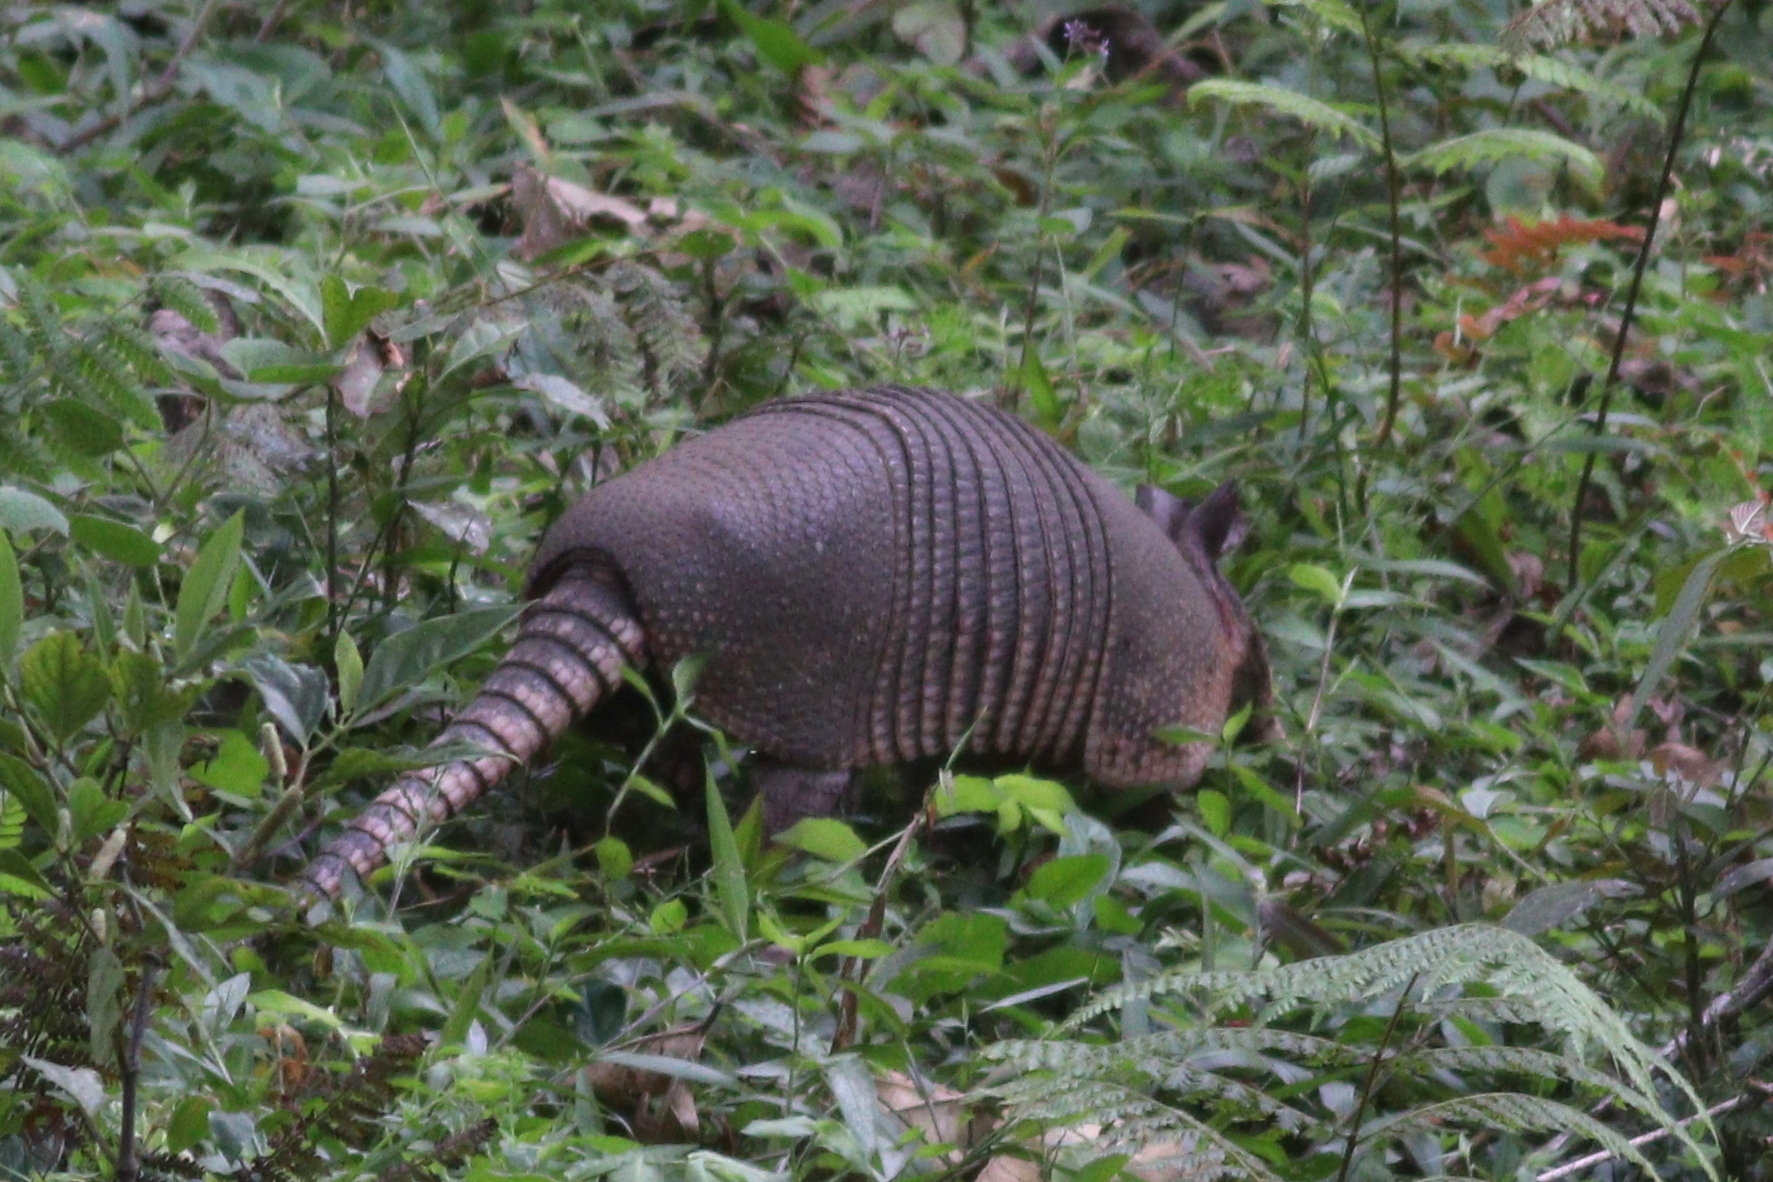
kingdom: Animalia
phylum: Chordata
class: Mammalia
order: Cingulata
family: Dasypodidae
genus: Dasypus
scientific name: Dasypus novemcinctus
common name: Nine-banded armadillo
